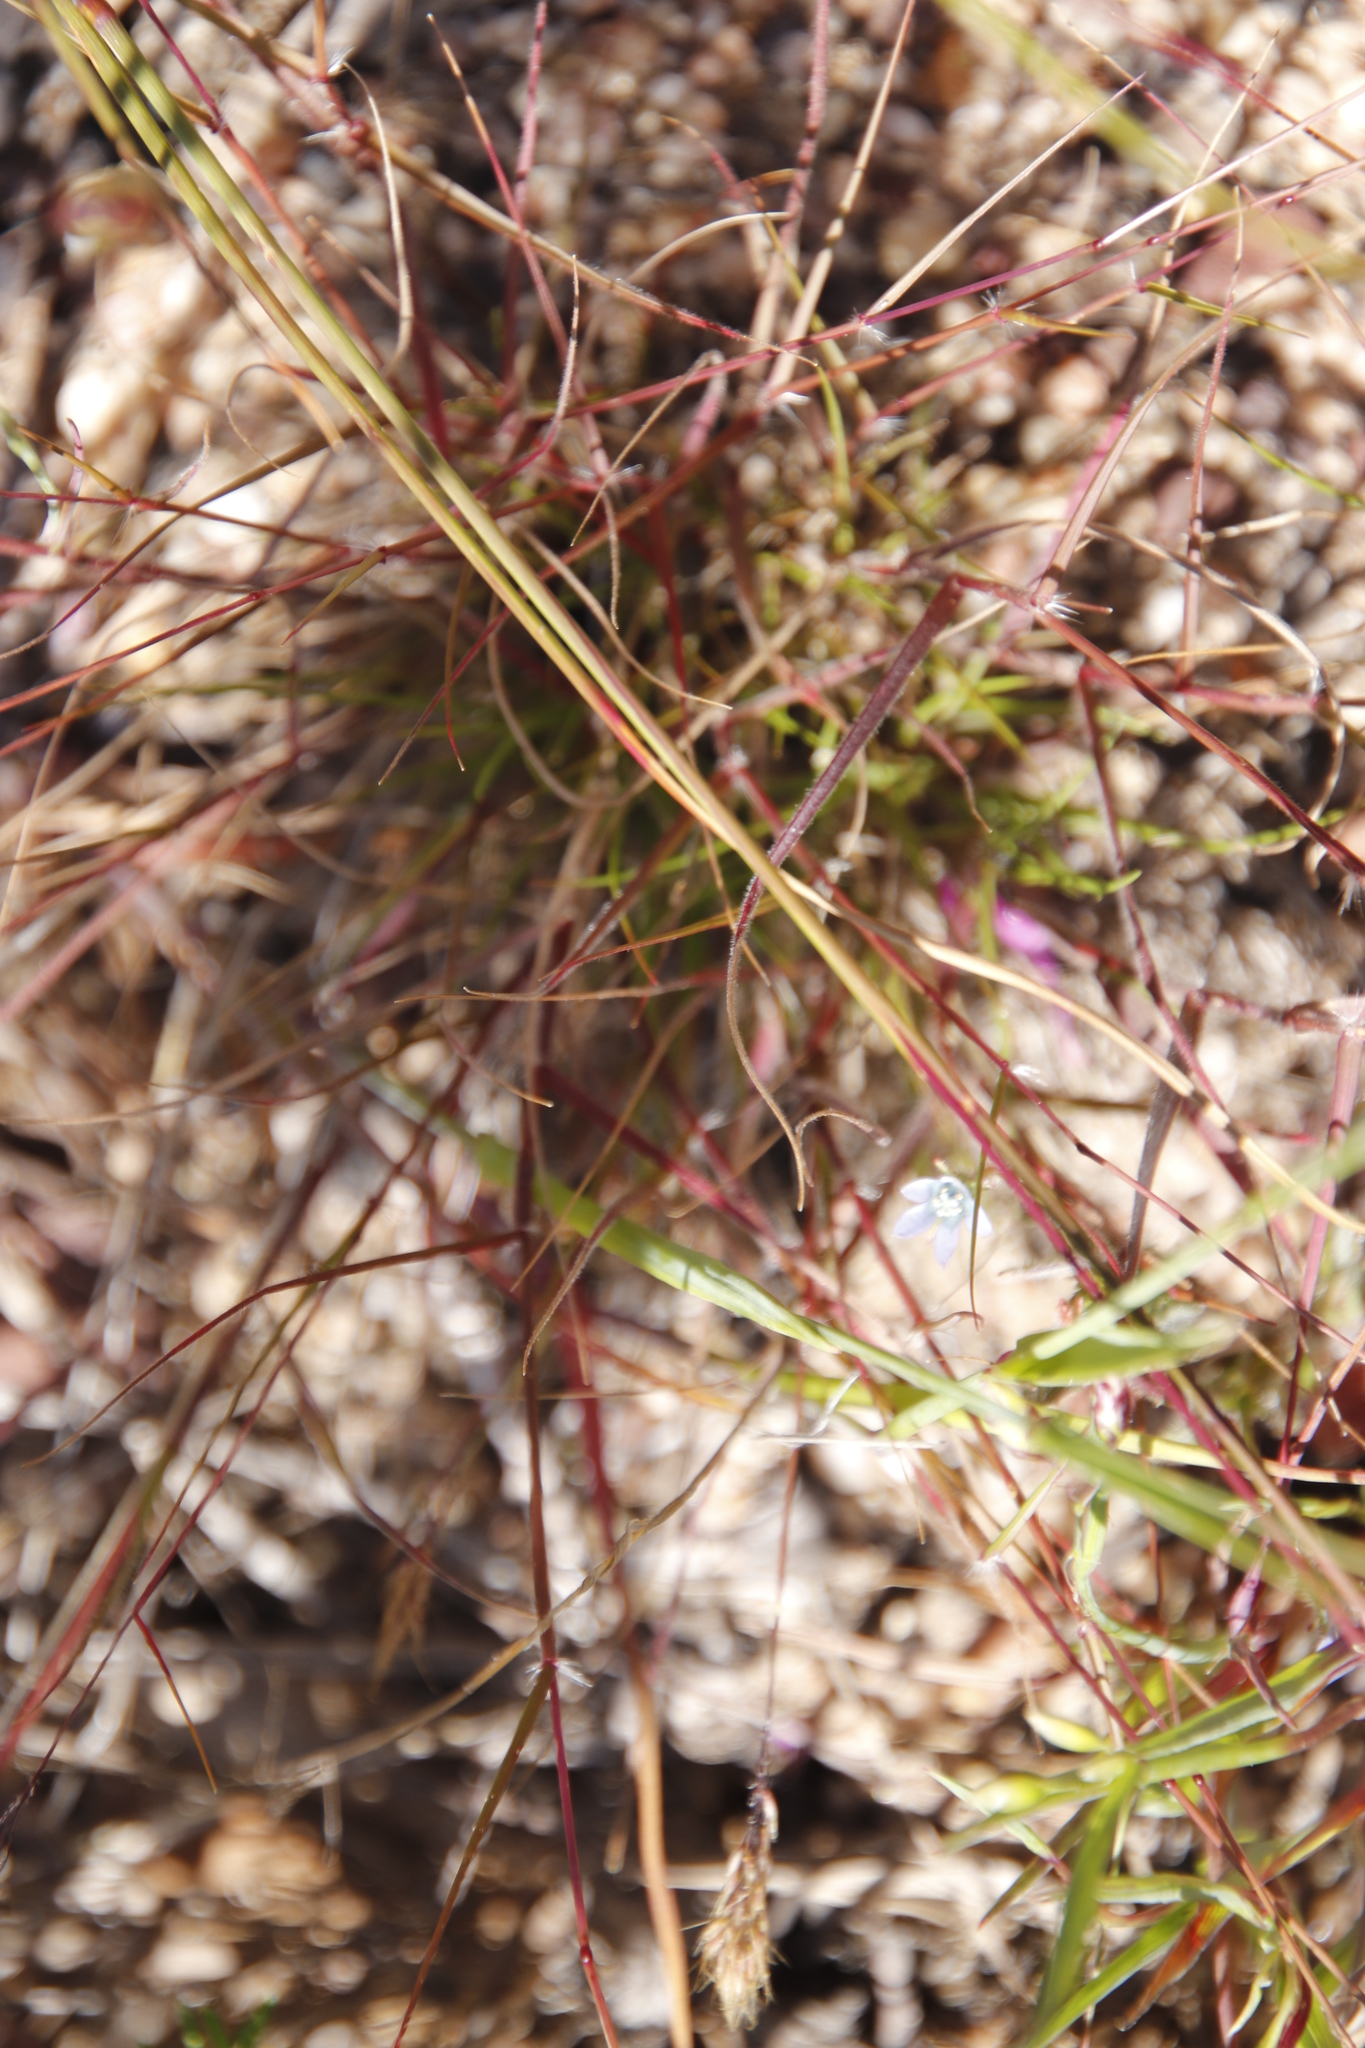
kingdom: Plantae
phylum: Tracheophyta
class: Magnoliopsida
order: Asterales
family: Campanulaceae
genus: Wahlenbergia
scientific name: Wahlenbergia cernua
